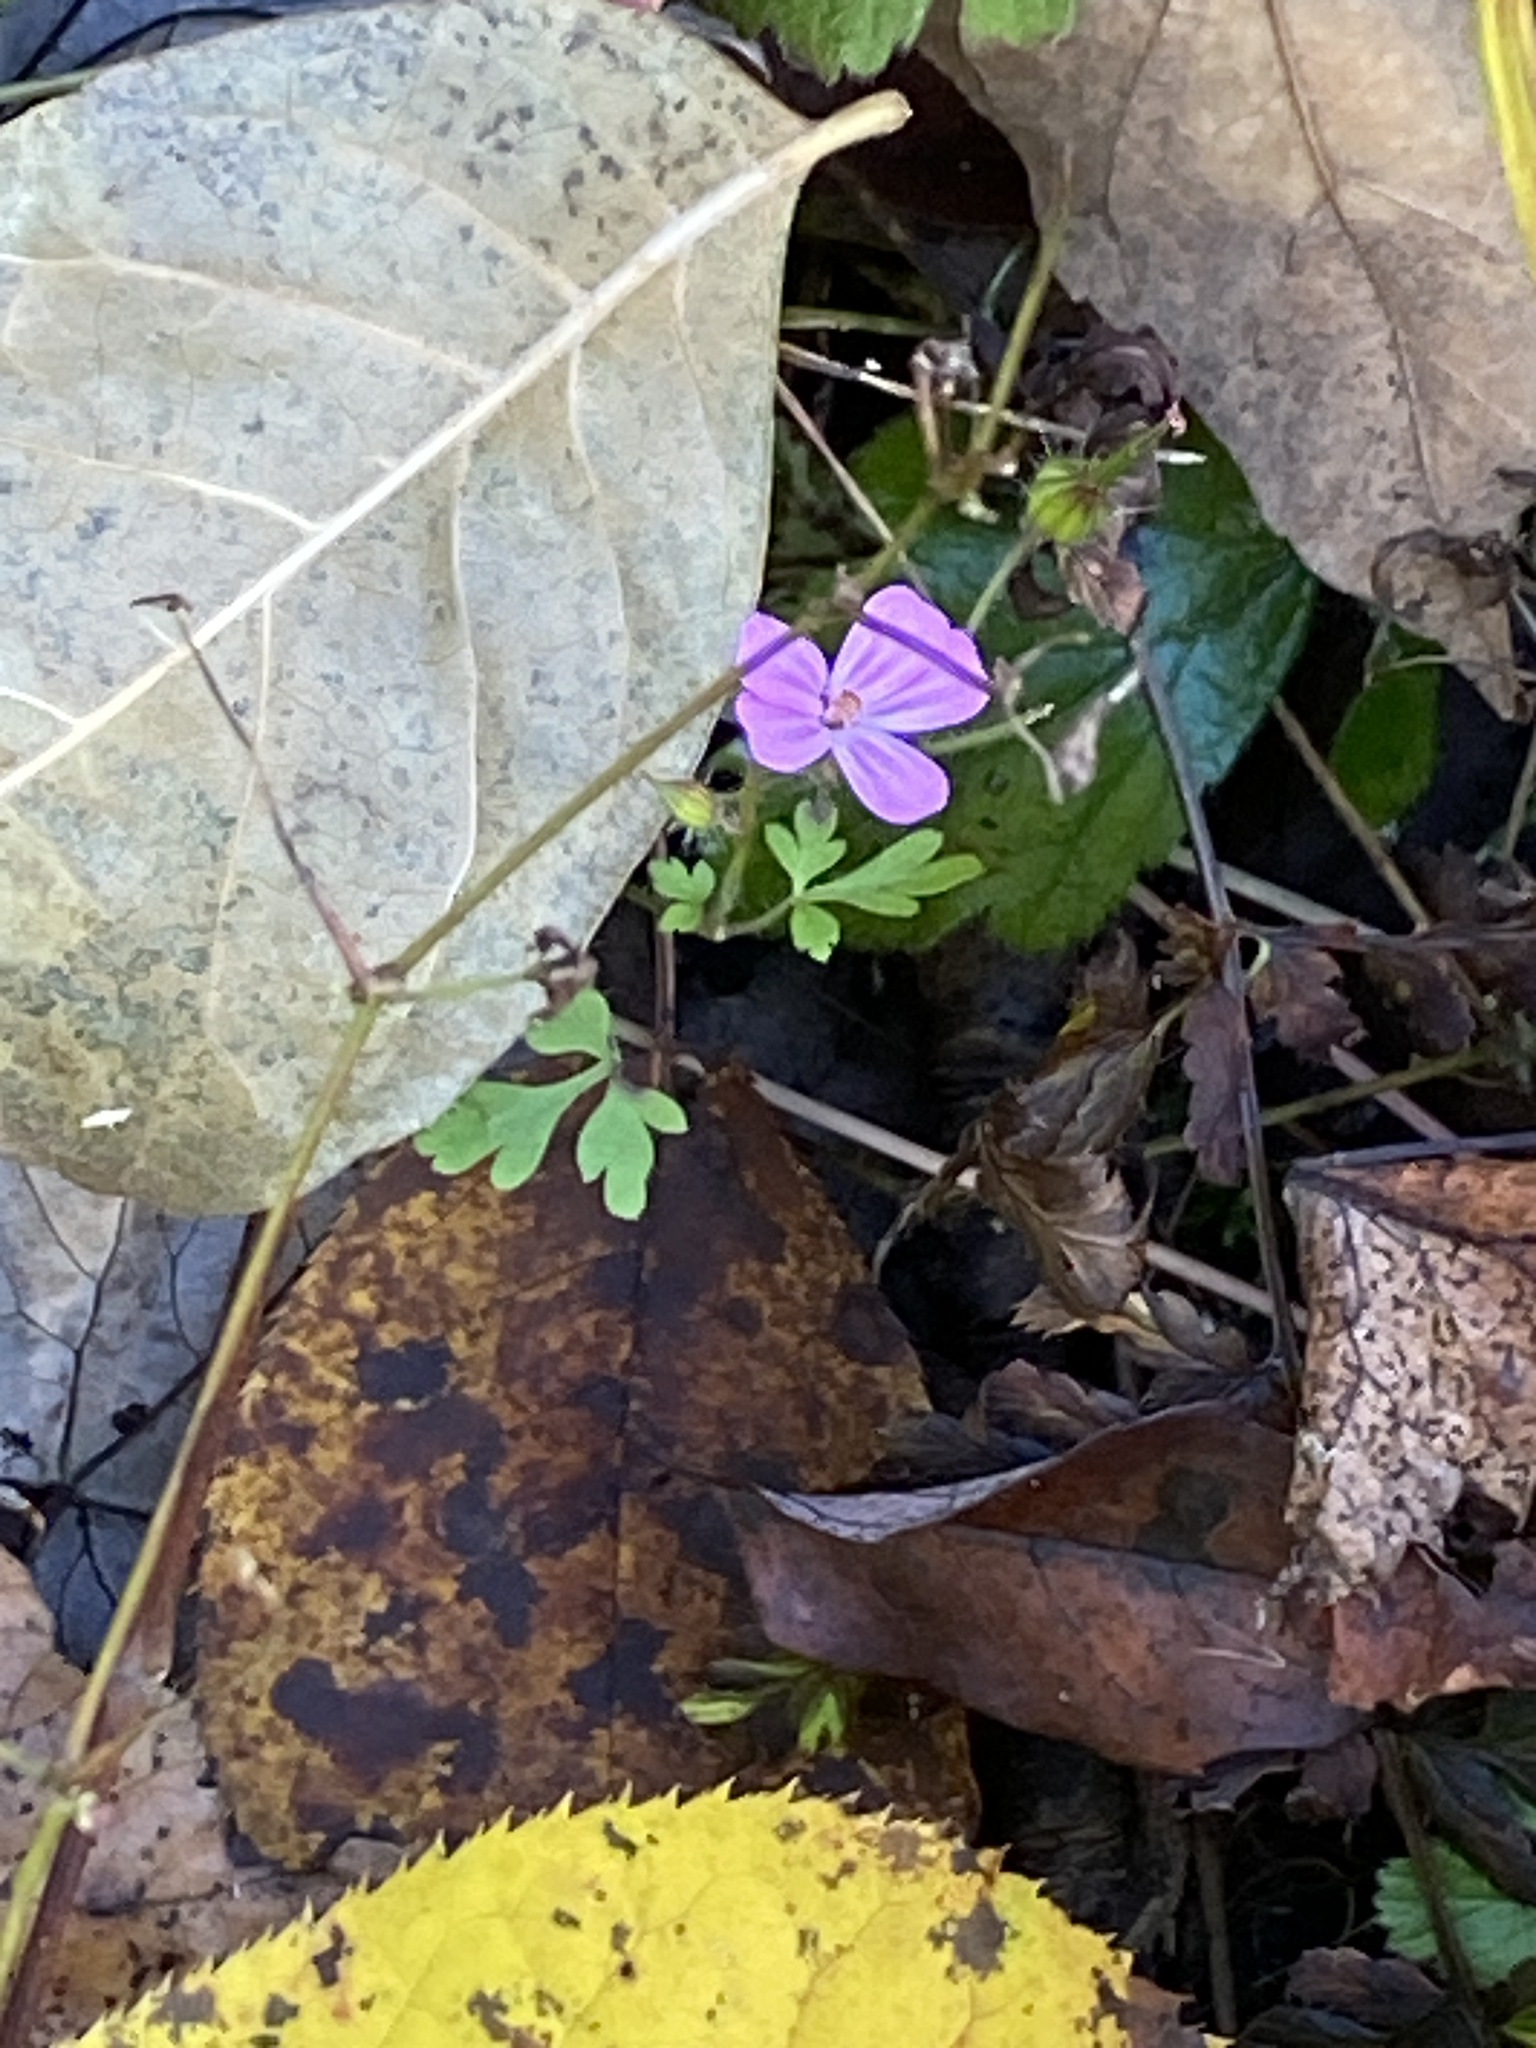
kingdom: Plantae
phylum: Tracheophyta
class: Magnoliopsida
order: Geraniales
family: Geraniaceae
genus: Geranium
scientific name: Geranium robertianum
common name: Herb-robert
